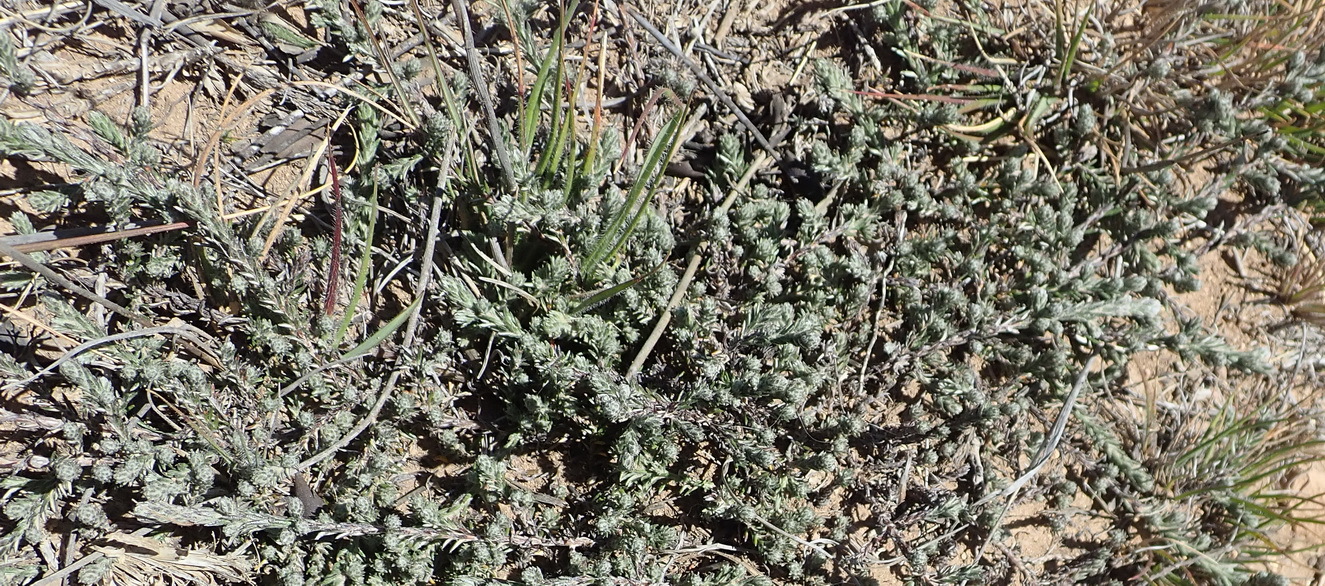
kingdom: Plantae
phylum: Tracheophyta
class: Magnoliopsida
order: Rosales
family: Rosaceae
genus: Cliffortia
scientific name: Cliffortia hantamensis
